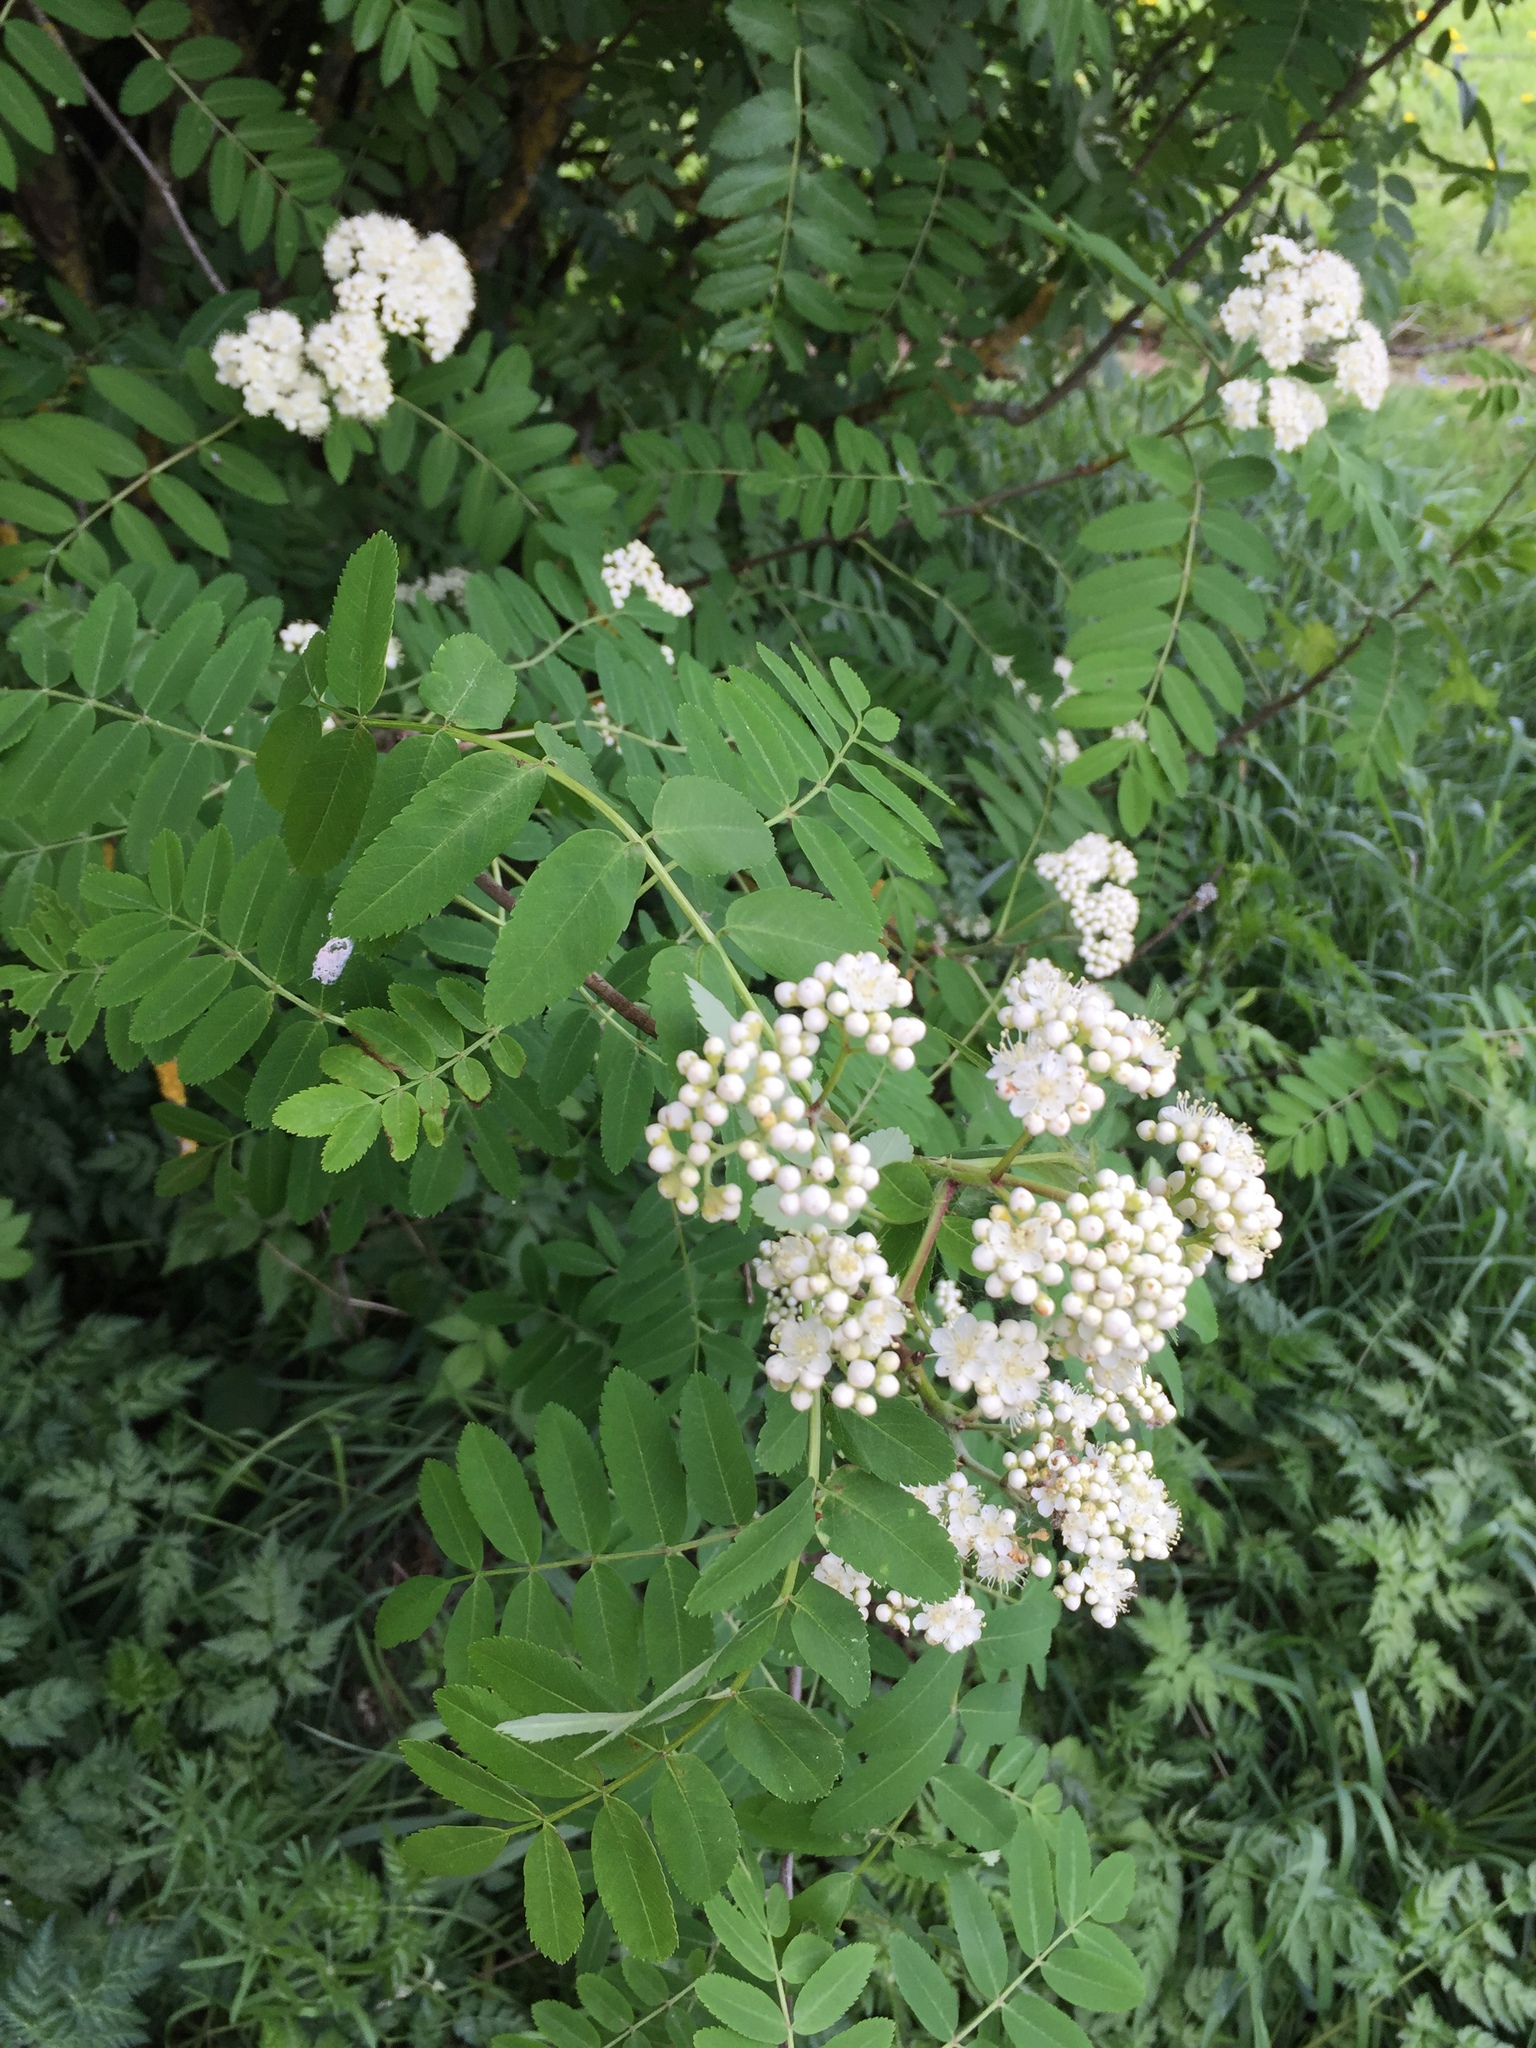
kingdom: Plantae
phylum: Tracheophyta
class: Magnoliopsida
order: Rosales
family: Rosaceae
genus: Sorbus
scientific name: Sorbus aucuparia
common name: Rowan
